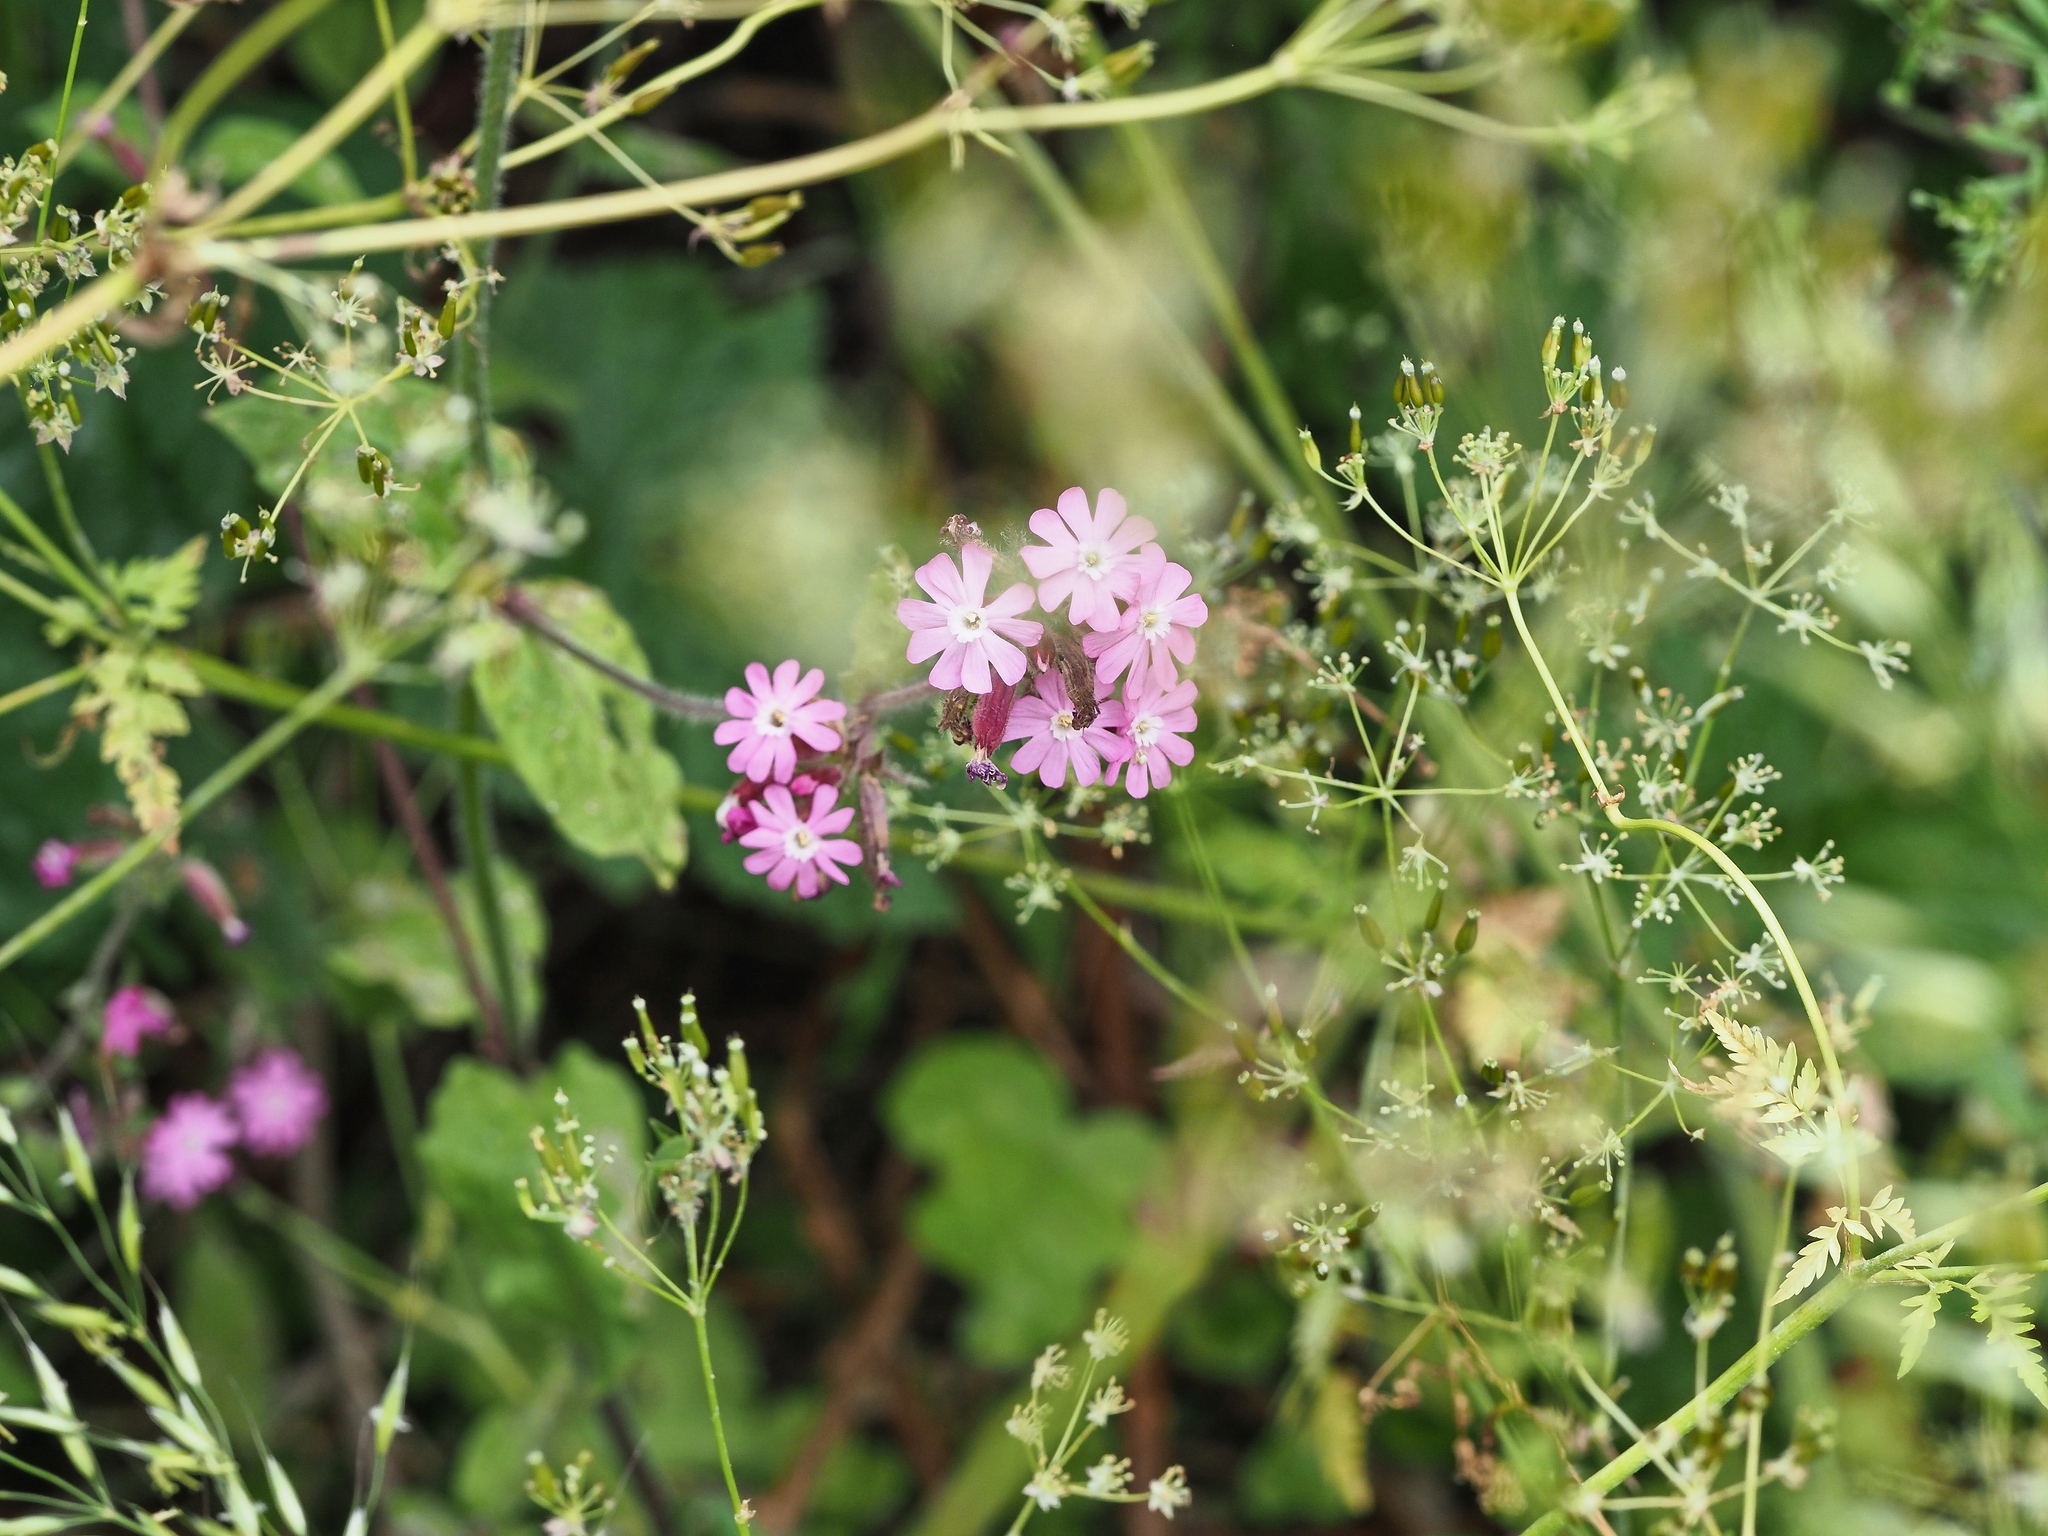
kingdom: Plantae
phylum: Tracheophyta
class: Magnoliopsida
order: Caryophyllales
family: Caryophyllaceae
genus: Silene
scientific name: Silene dioica
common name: Red campion
